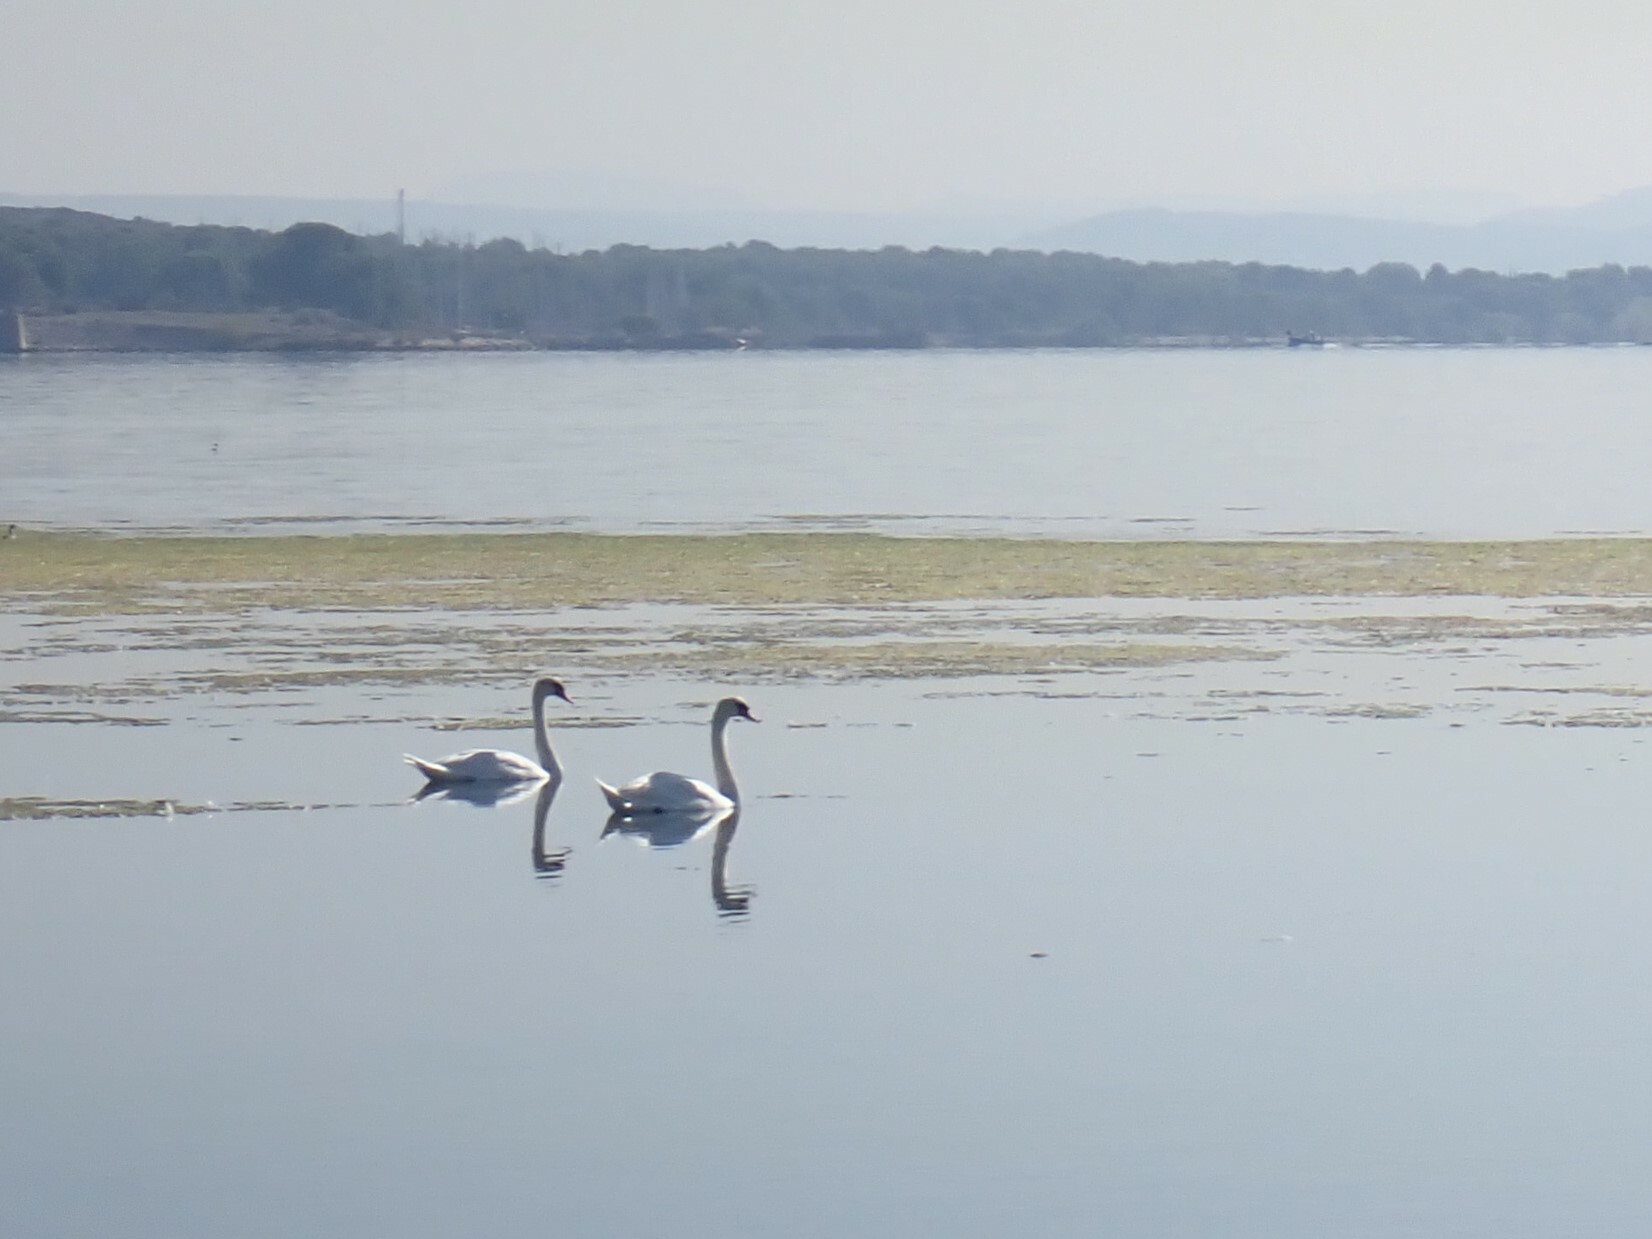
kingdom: Animalia
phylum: Chordata
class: Aves
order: Anseriformes
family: Anatidae
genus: Cygnus
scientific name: Cygnus olor
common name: Mute swan
